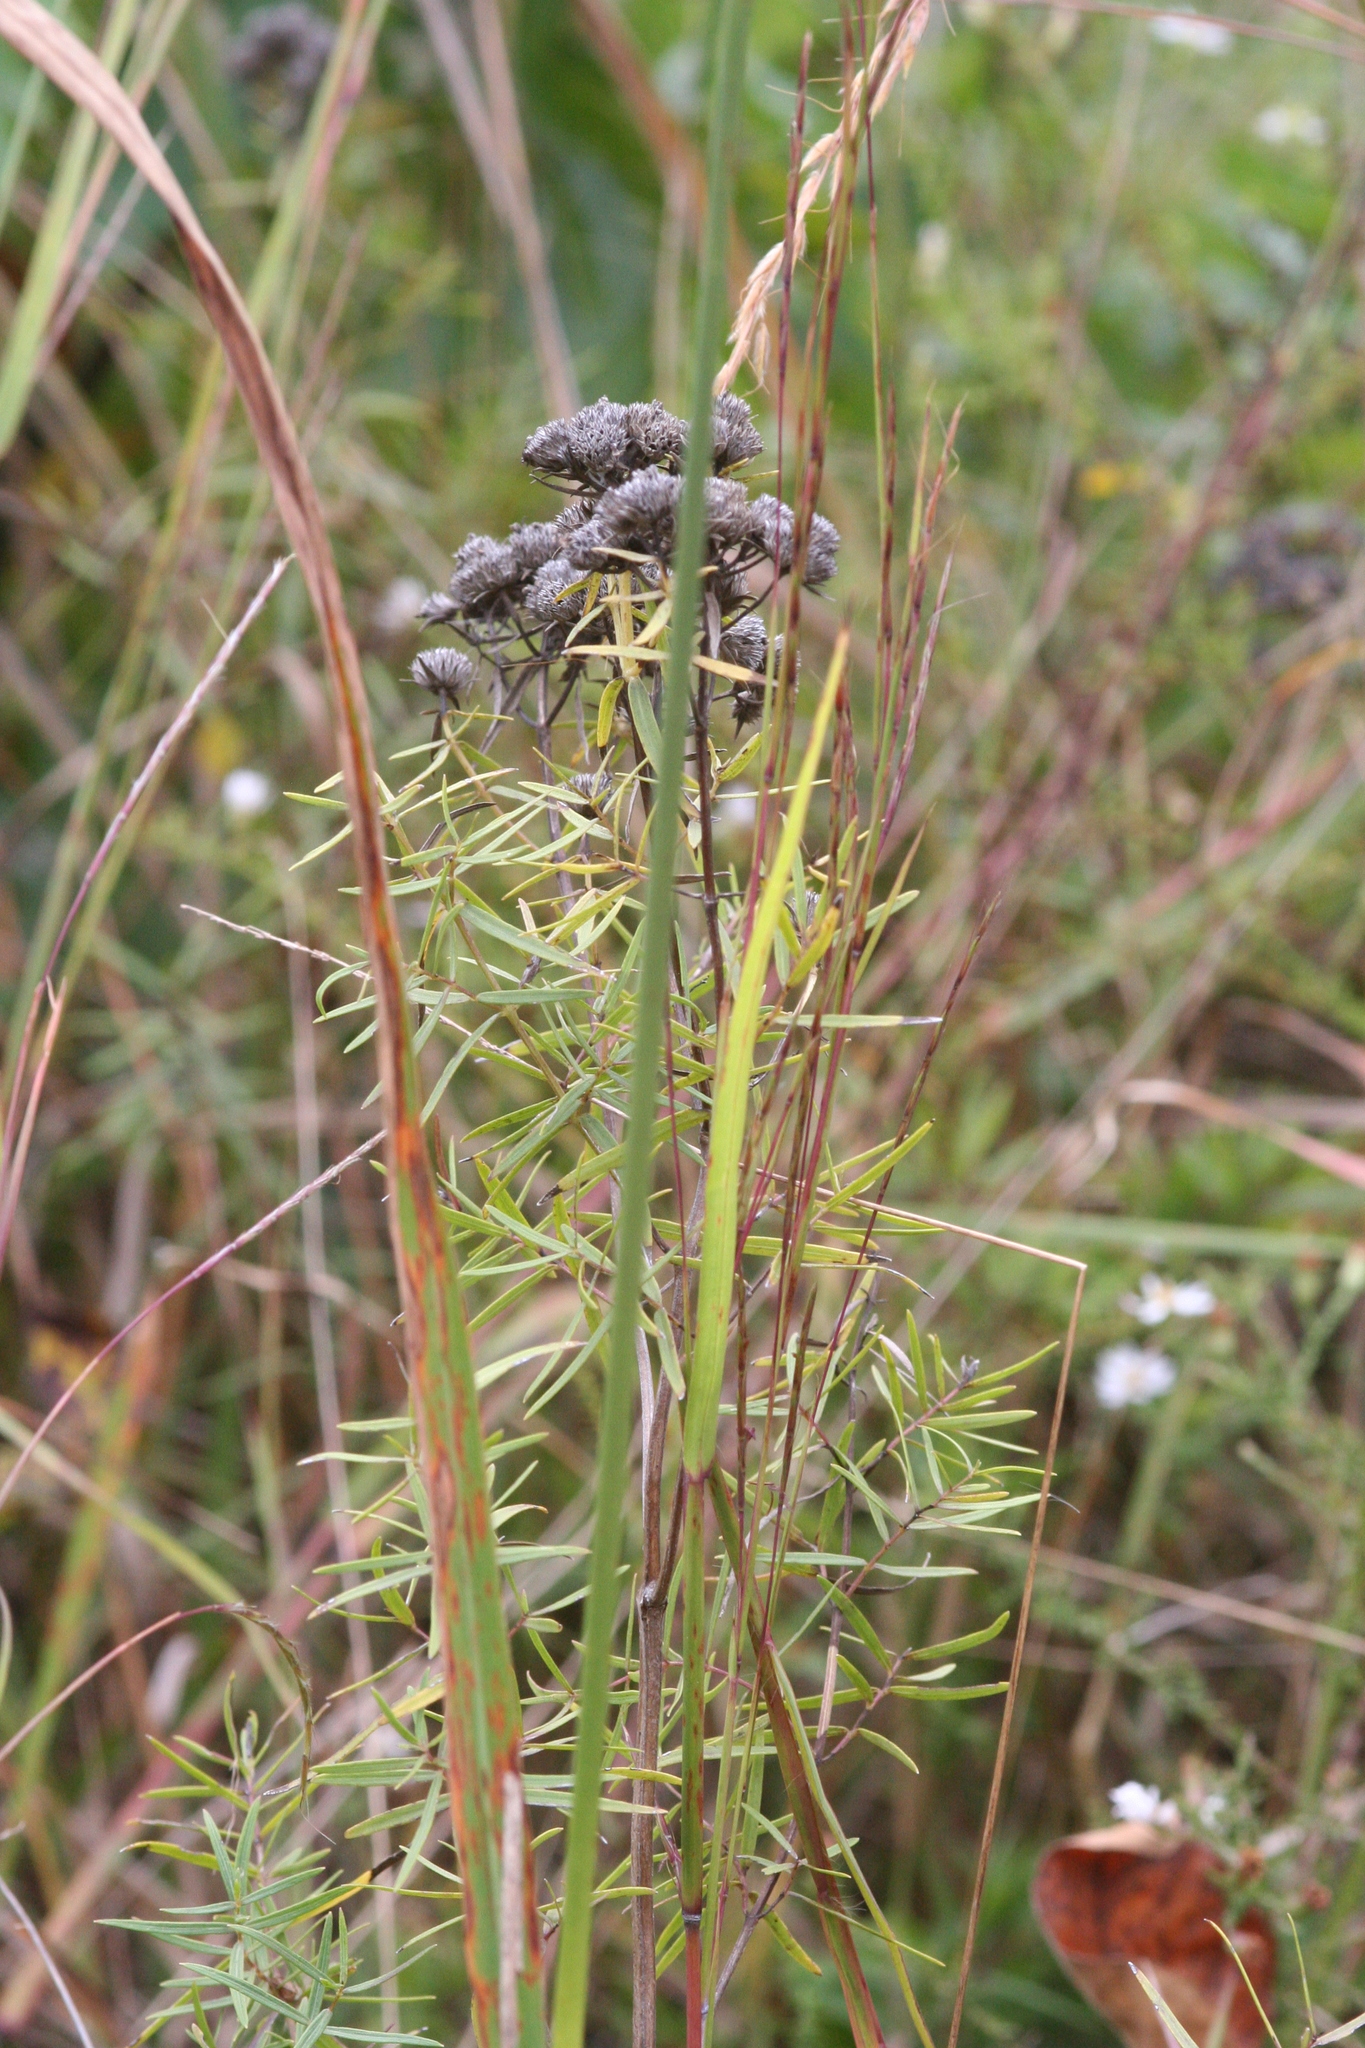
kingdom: Plantae
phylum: Tracheophyta
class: Magnoliopsida
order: Lamiales
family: Lamiaceae
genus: Pycnanthemum
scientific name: Pycnanthemum tenuifolium
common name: Narrow-leaf mountain-mint
